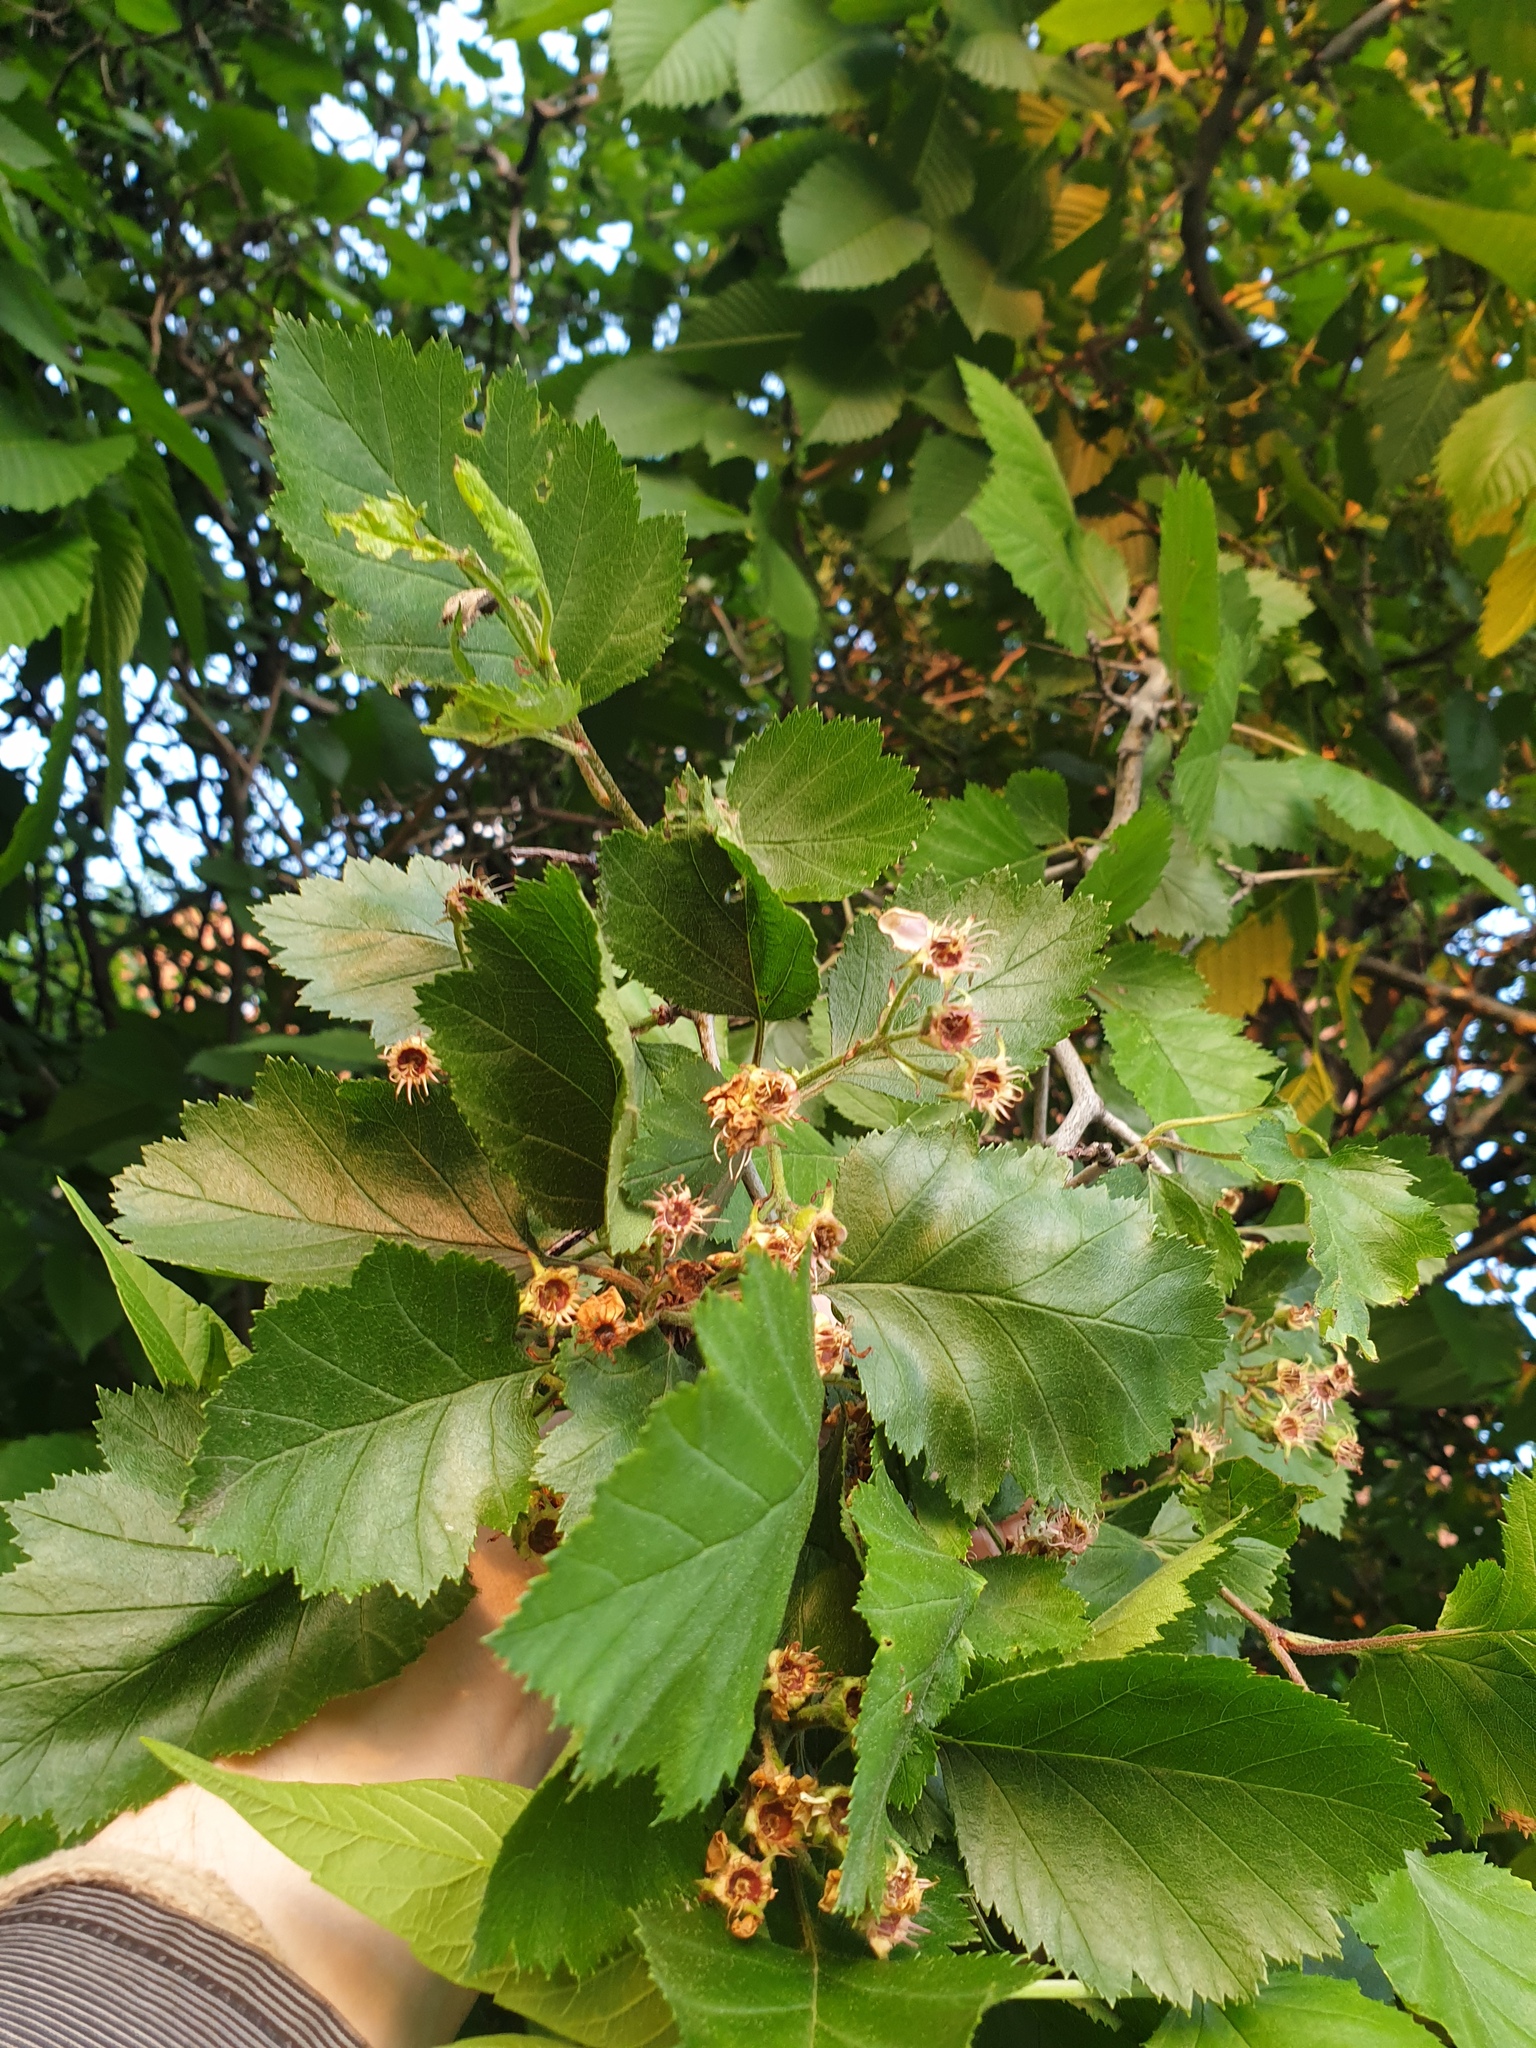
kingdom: Plantae
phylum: Tracheophyta
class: Magnoliopsida
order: Rosales
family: Rosaceae
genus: Crataegus
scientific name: Crataegus submollis
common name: Hairy cockspurthorn
